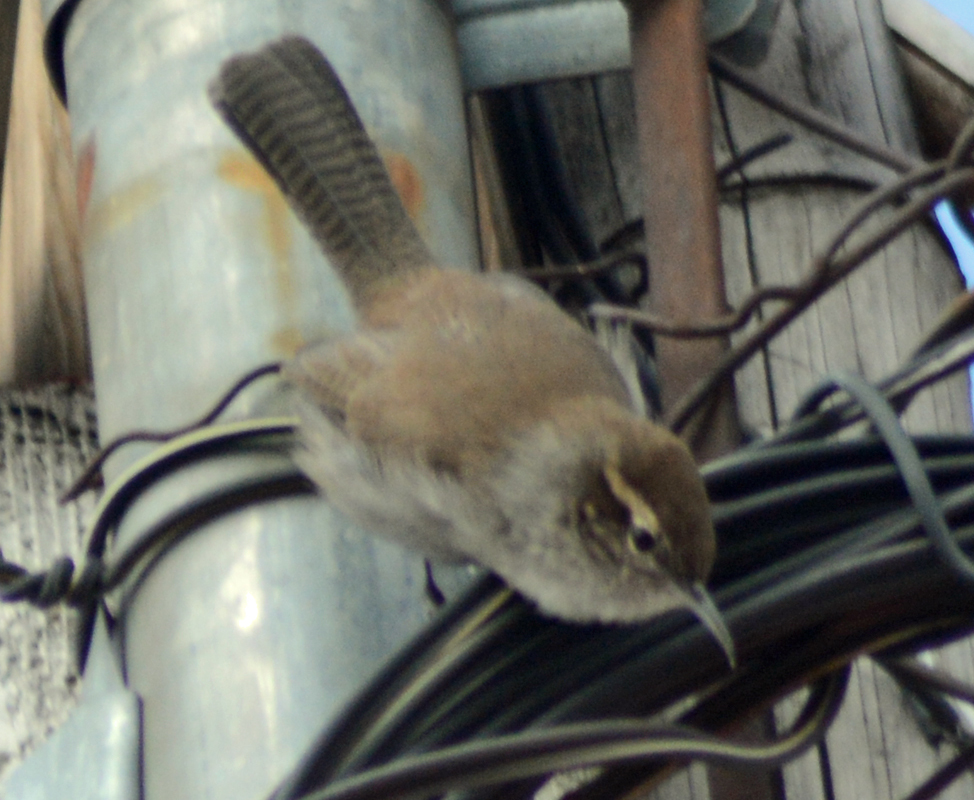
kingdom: Animalia
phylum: Chordata
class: Aves
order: Passeriformes
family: Troglodytidae
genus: Thryomanes
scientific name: Thryomanes bewickii
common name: Bewick's wren
